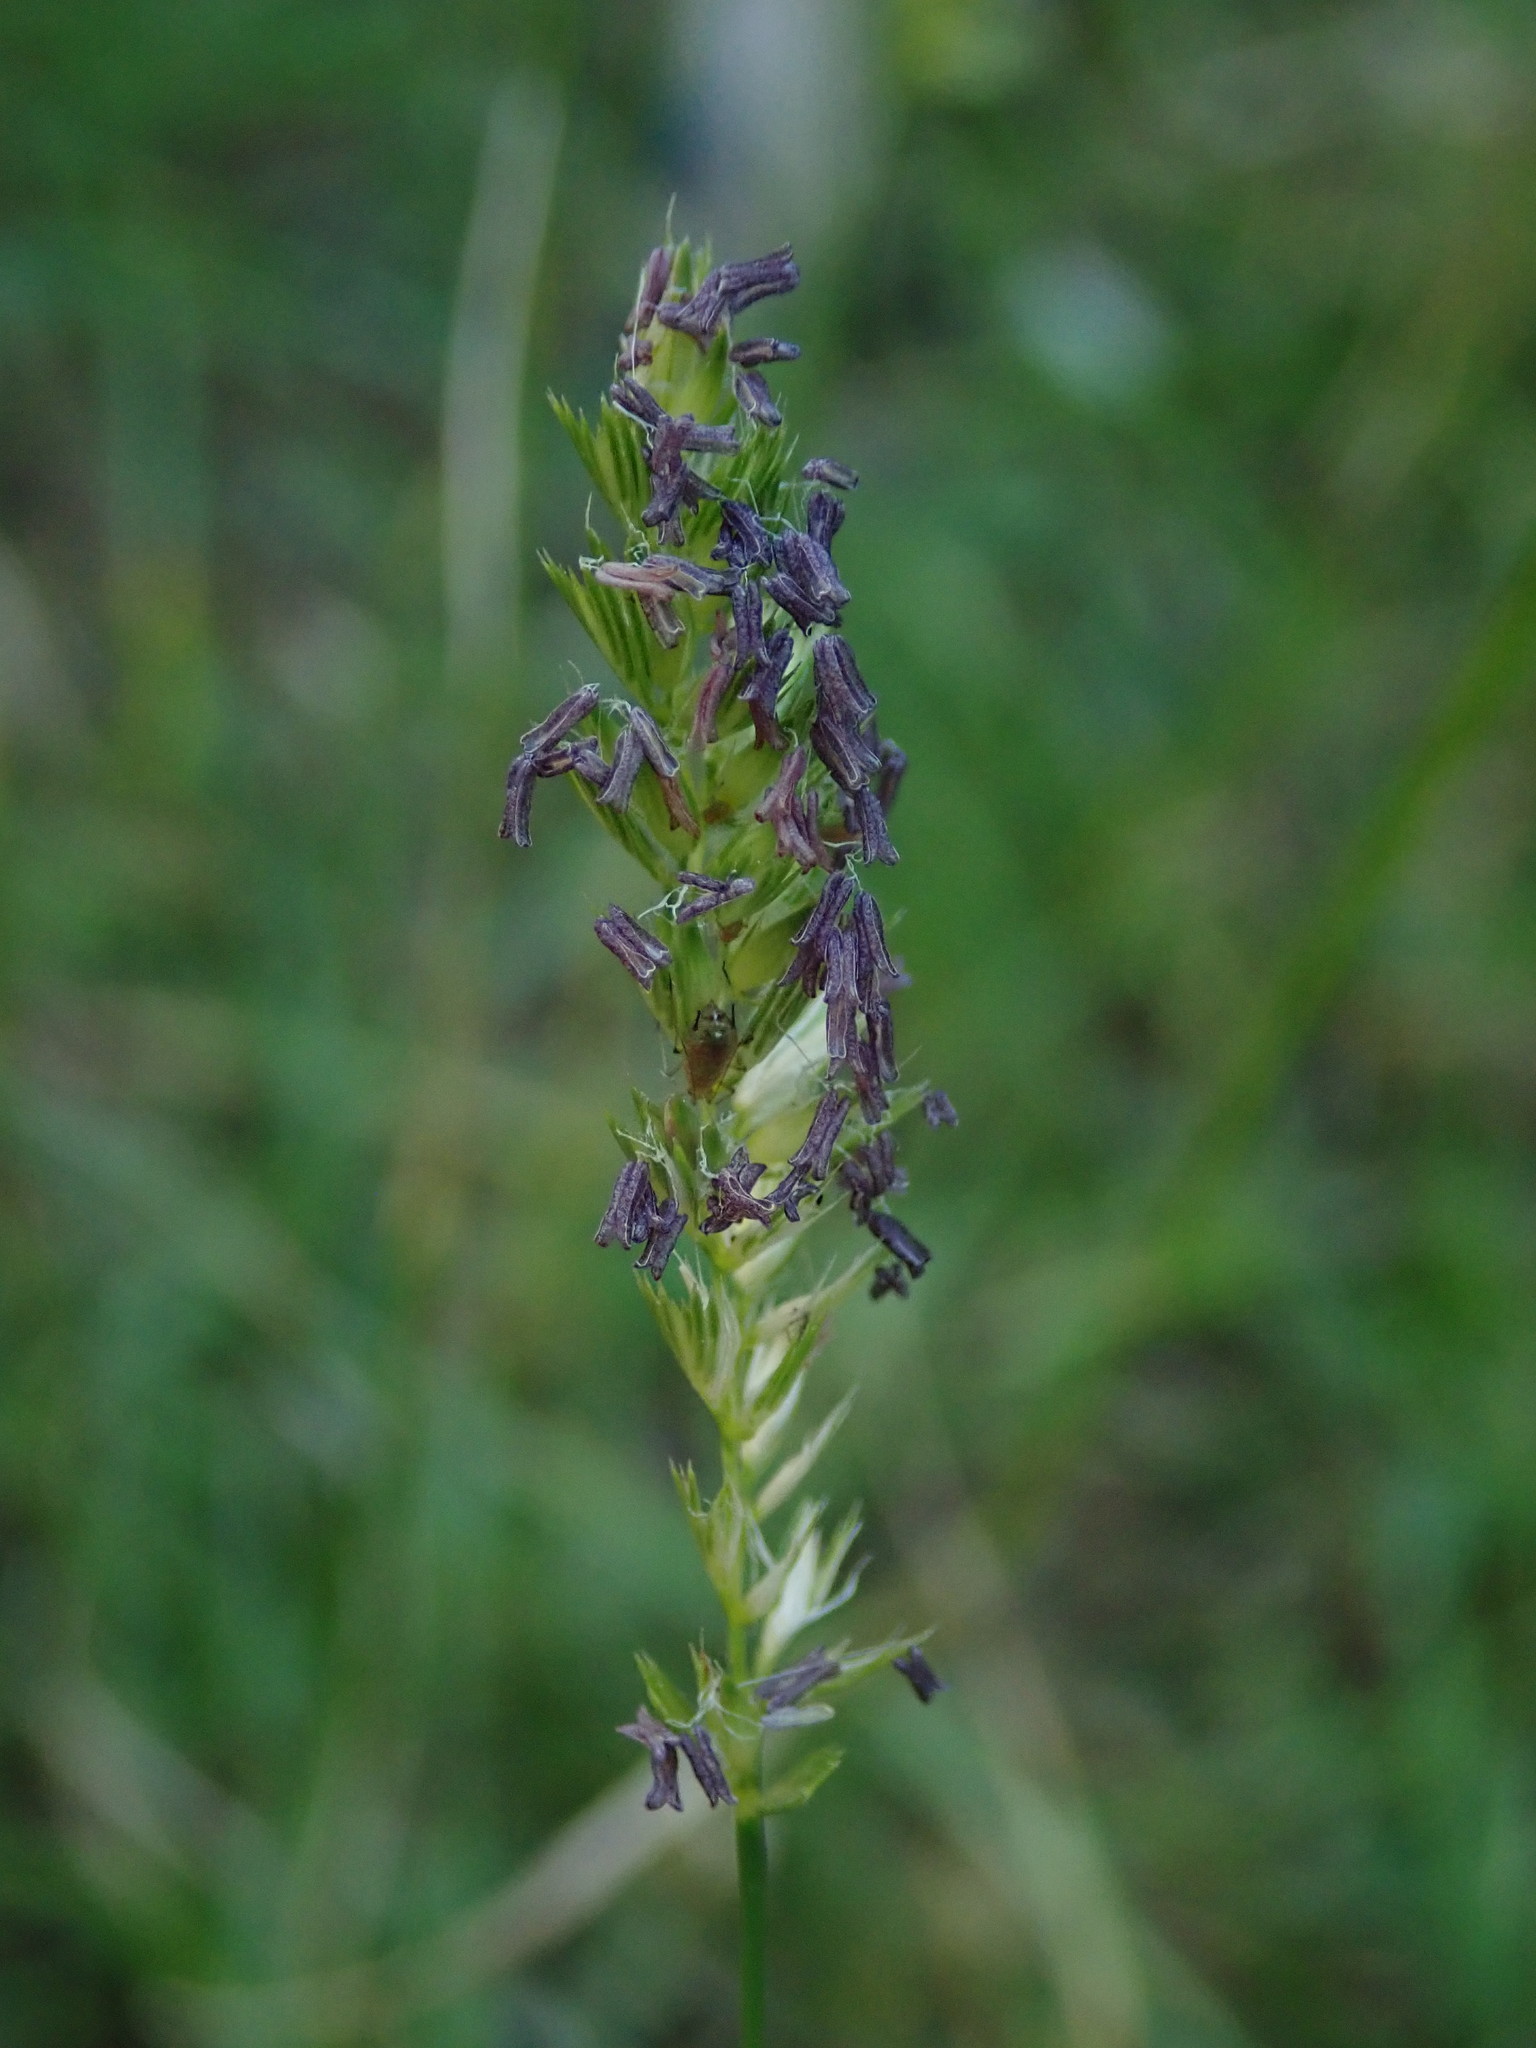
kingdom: Plantae
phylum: Tracheophyta
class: Liliopsida
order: Poales
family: Poaceae
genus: Cynosurus
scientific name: Cynosurus cristatus
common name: Crested dog's-tail
